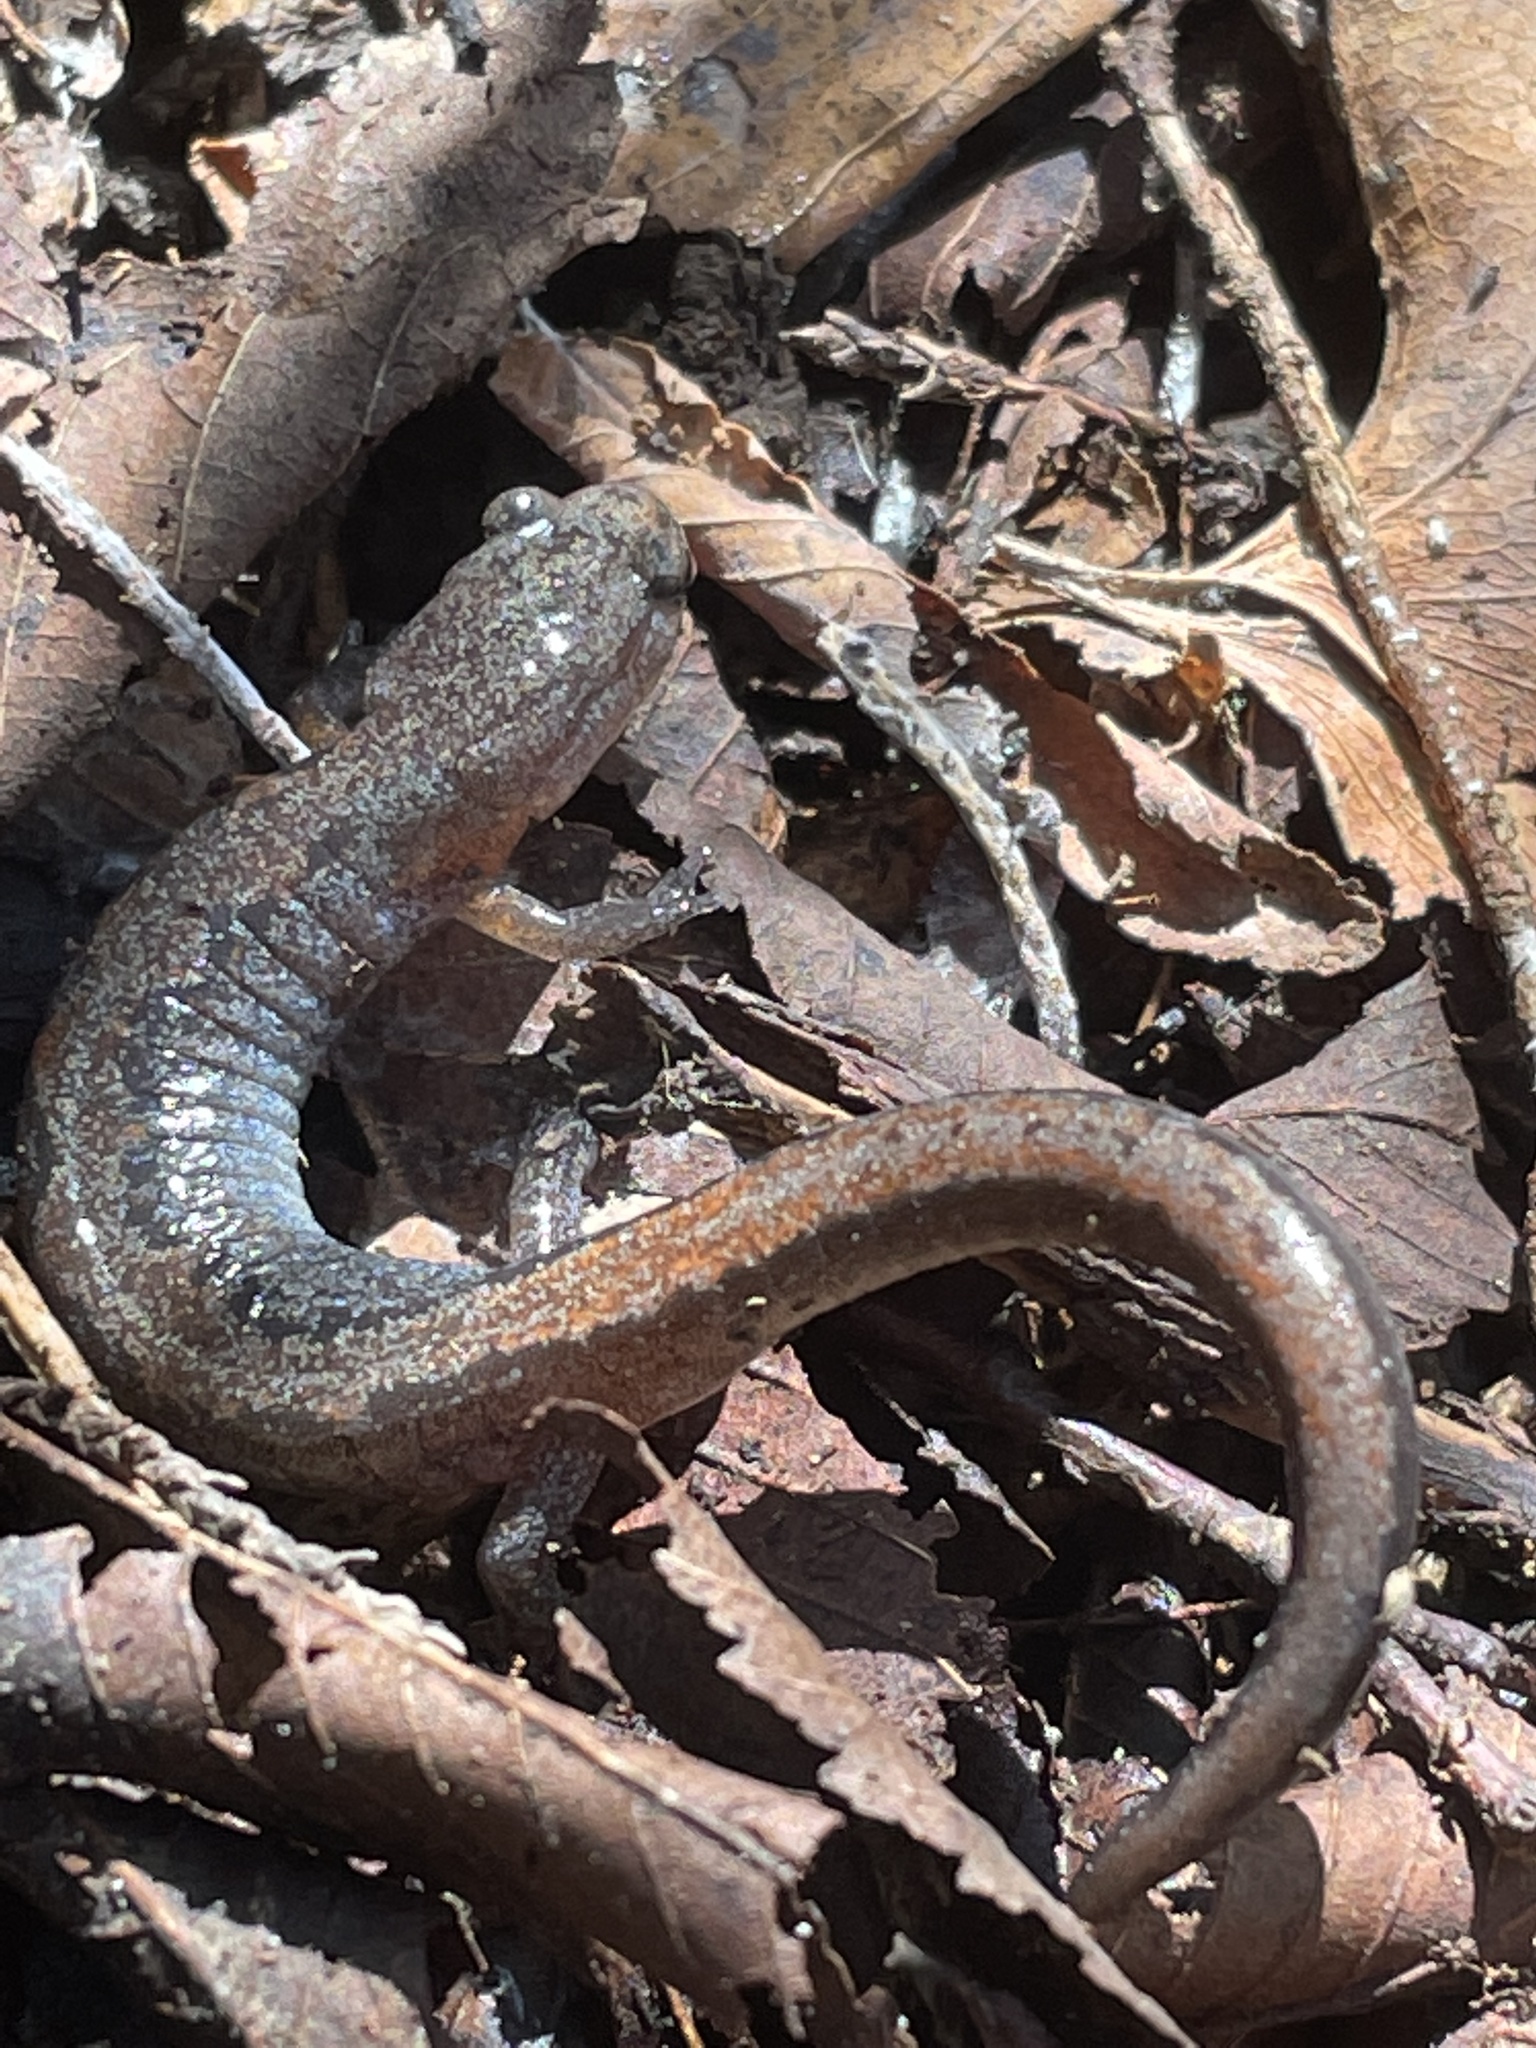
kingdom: Animalia
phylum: Chordata
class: Amphibia
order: Caudata
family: Plethodontidae
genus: Plethodon
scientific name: Plethodon dorsalis
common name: Northern zigzag salamander
